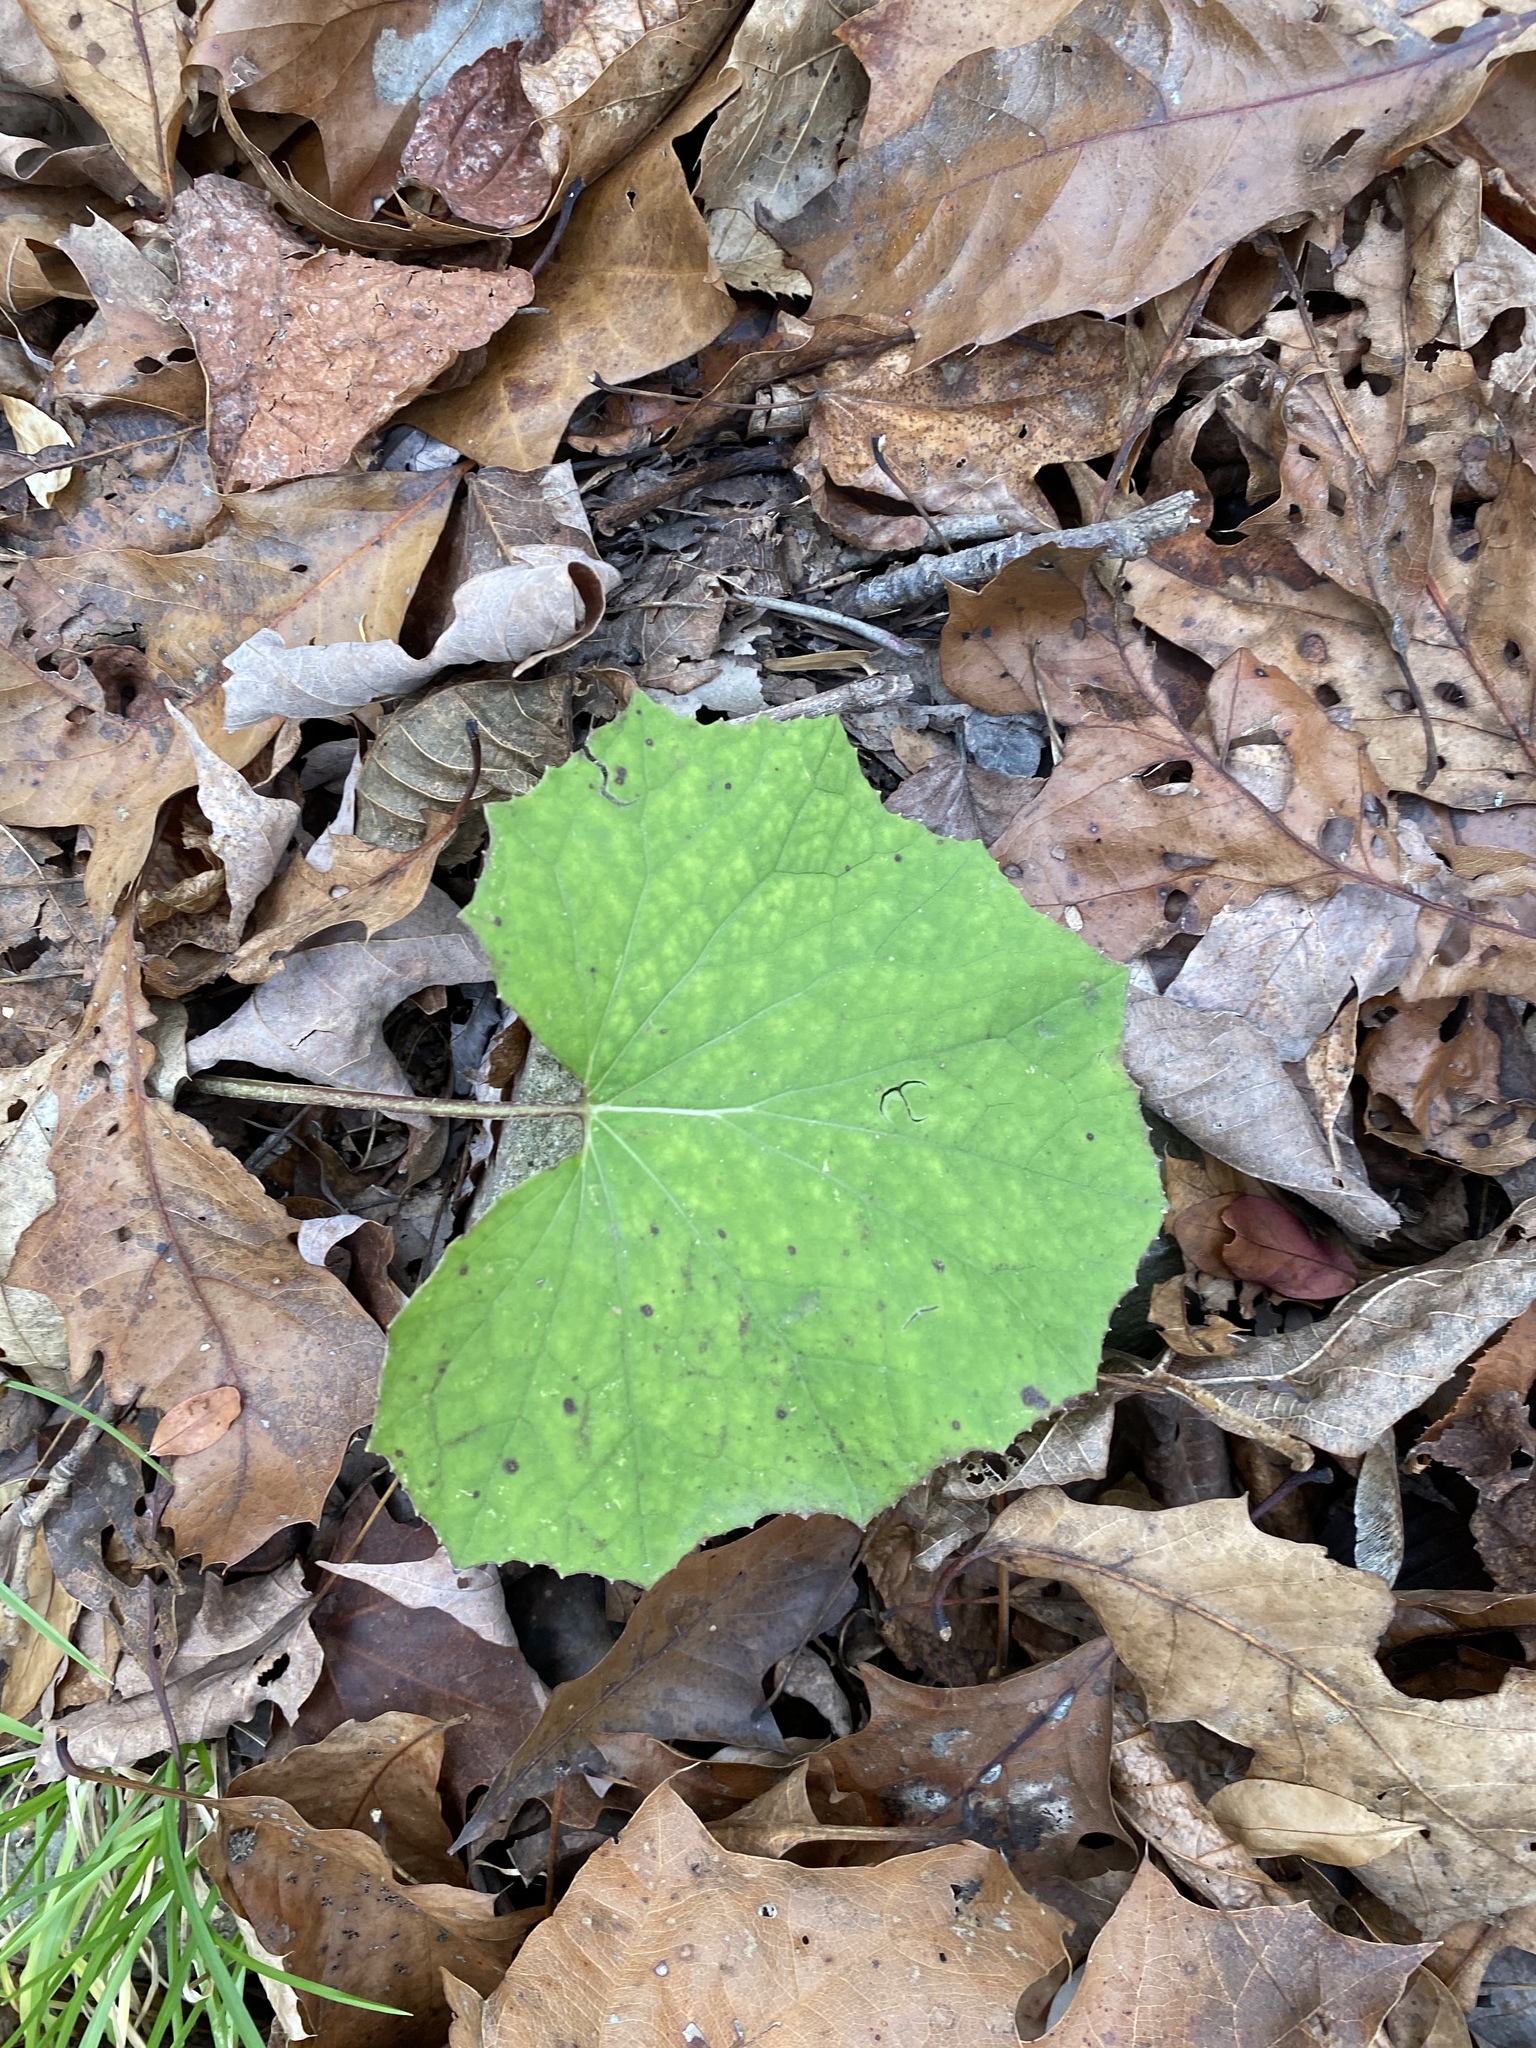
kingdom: Plantae
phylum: Tracheophyta
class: Magnoliopsida
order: Asterales
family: Asteraceae
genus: Tussilago
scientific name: Tussilago farfara
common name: Coltsfoot
